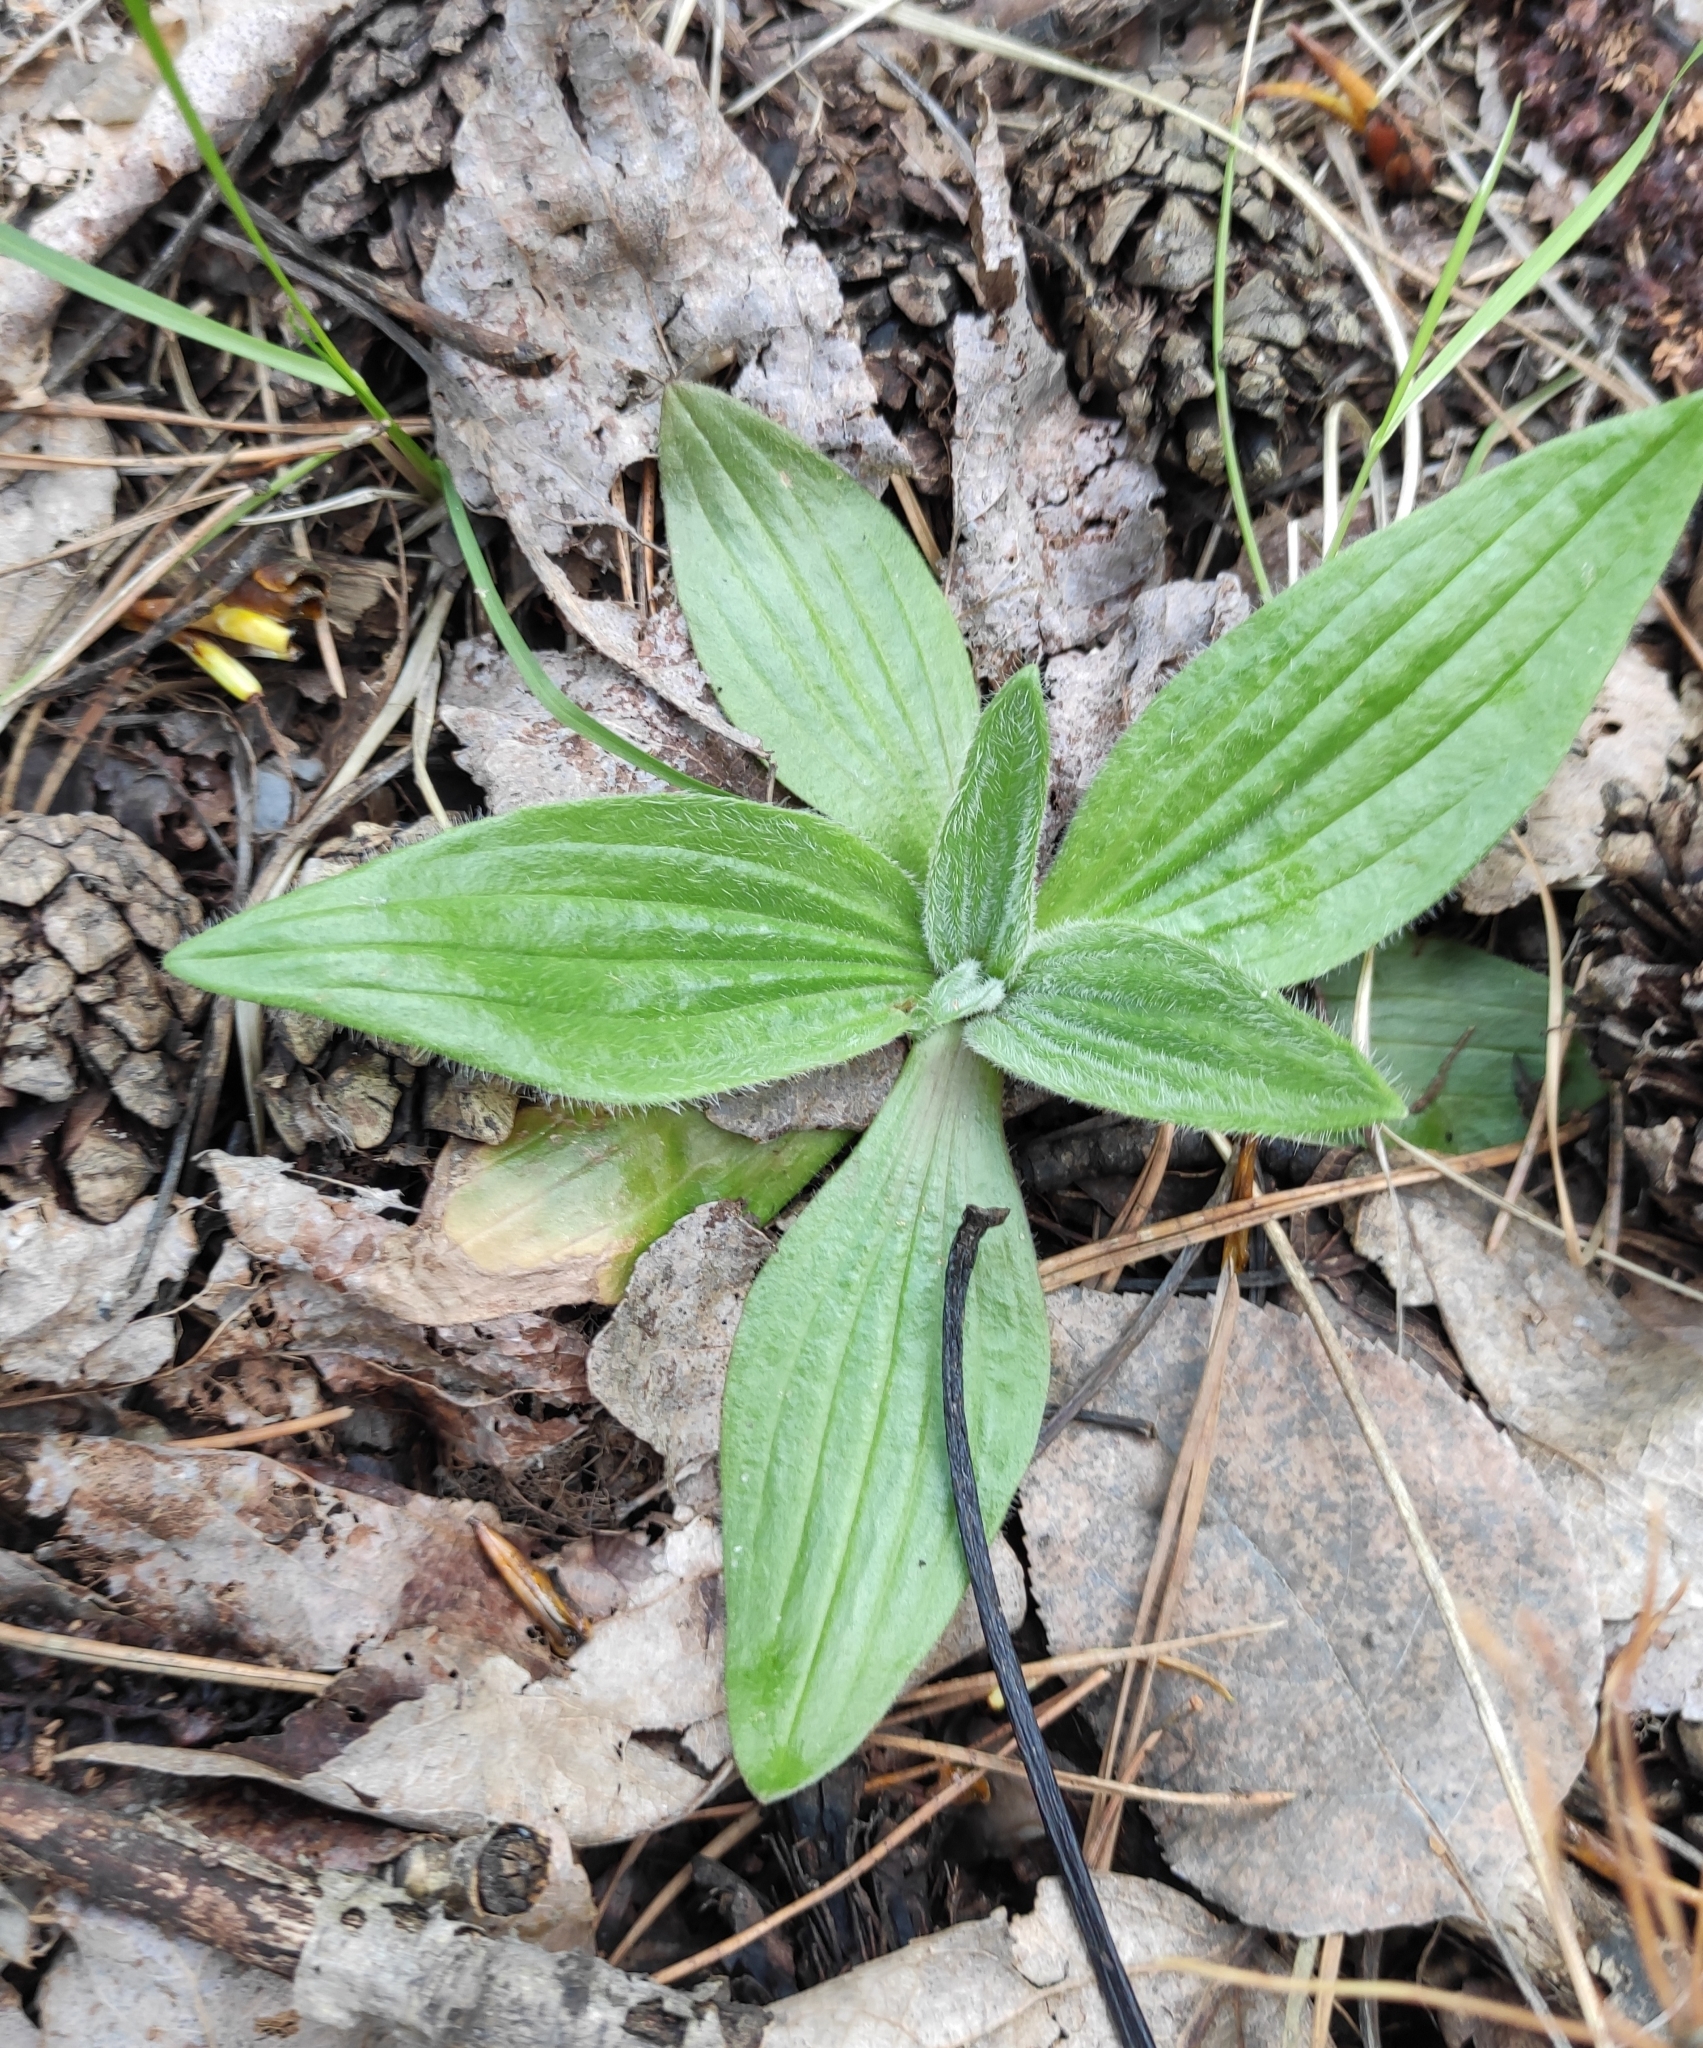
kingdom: Plantae
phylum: Tracheophyta
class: Magnoliopsida
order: Lamiales
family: Plantaginaceae
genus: Plantago
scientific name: Plantago media
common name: Hoary plantain
